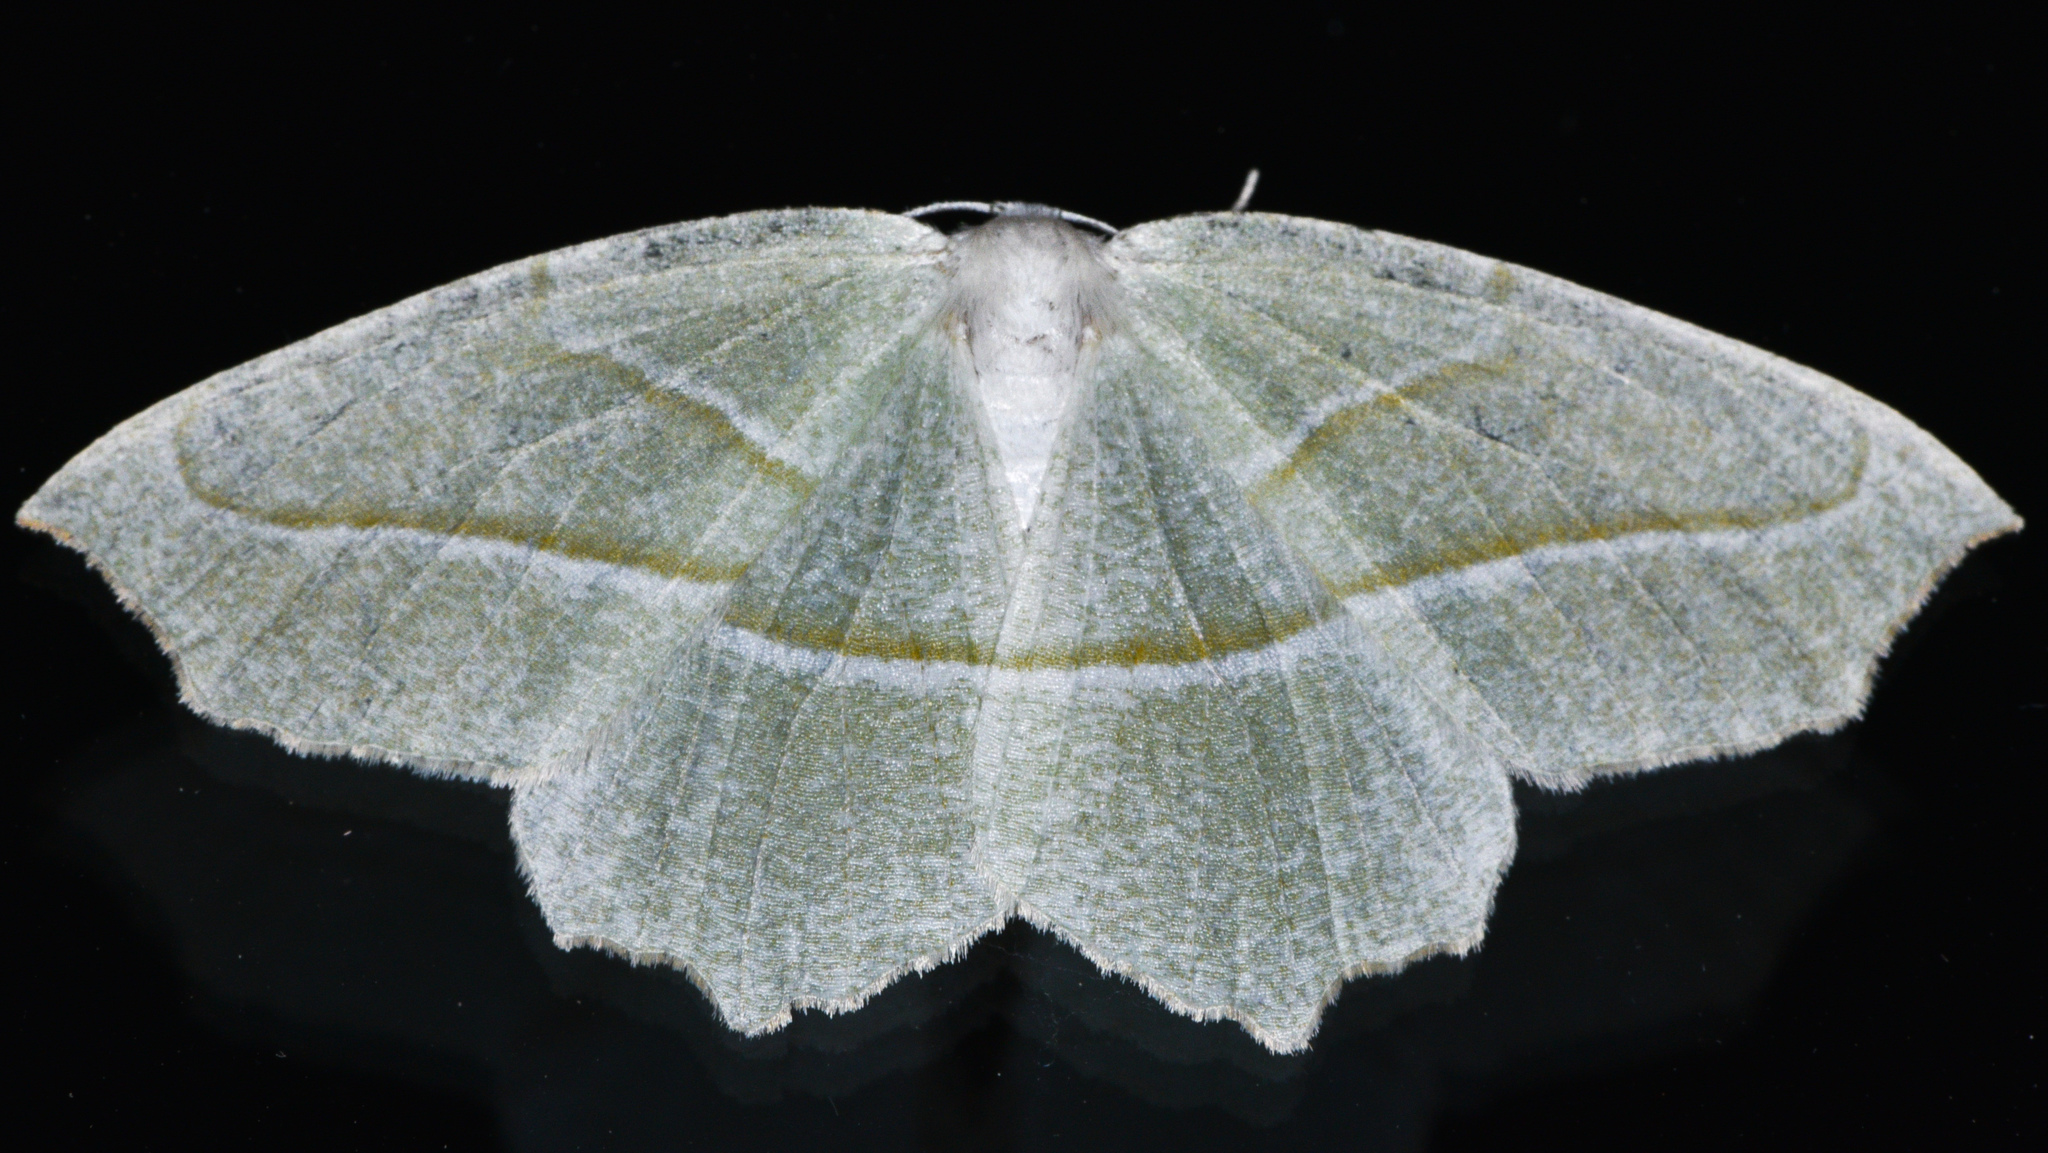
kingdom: Animalia
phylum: Arthropoda
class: Insecta
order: Lepidoptera
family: Geometridae
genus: Campaea
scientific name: Campaea perlata
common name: Fringed looper
